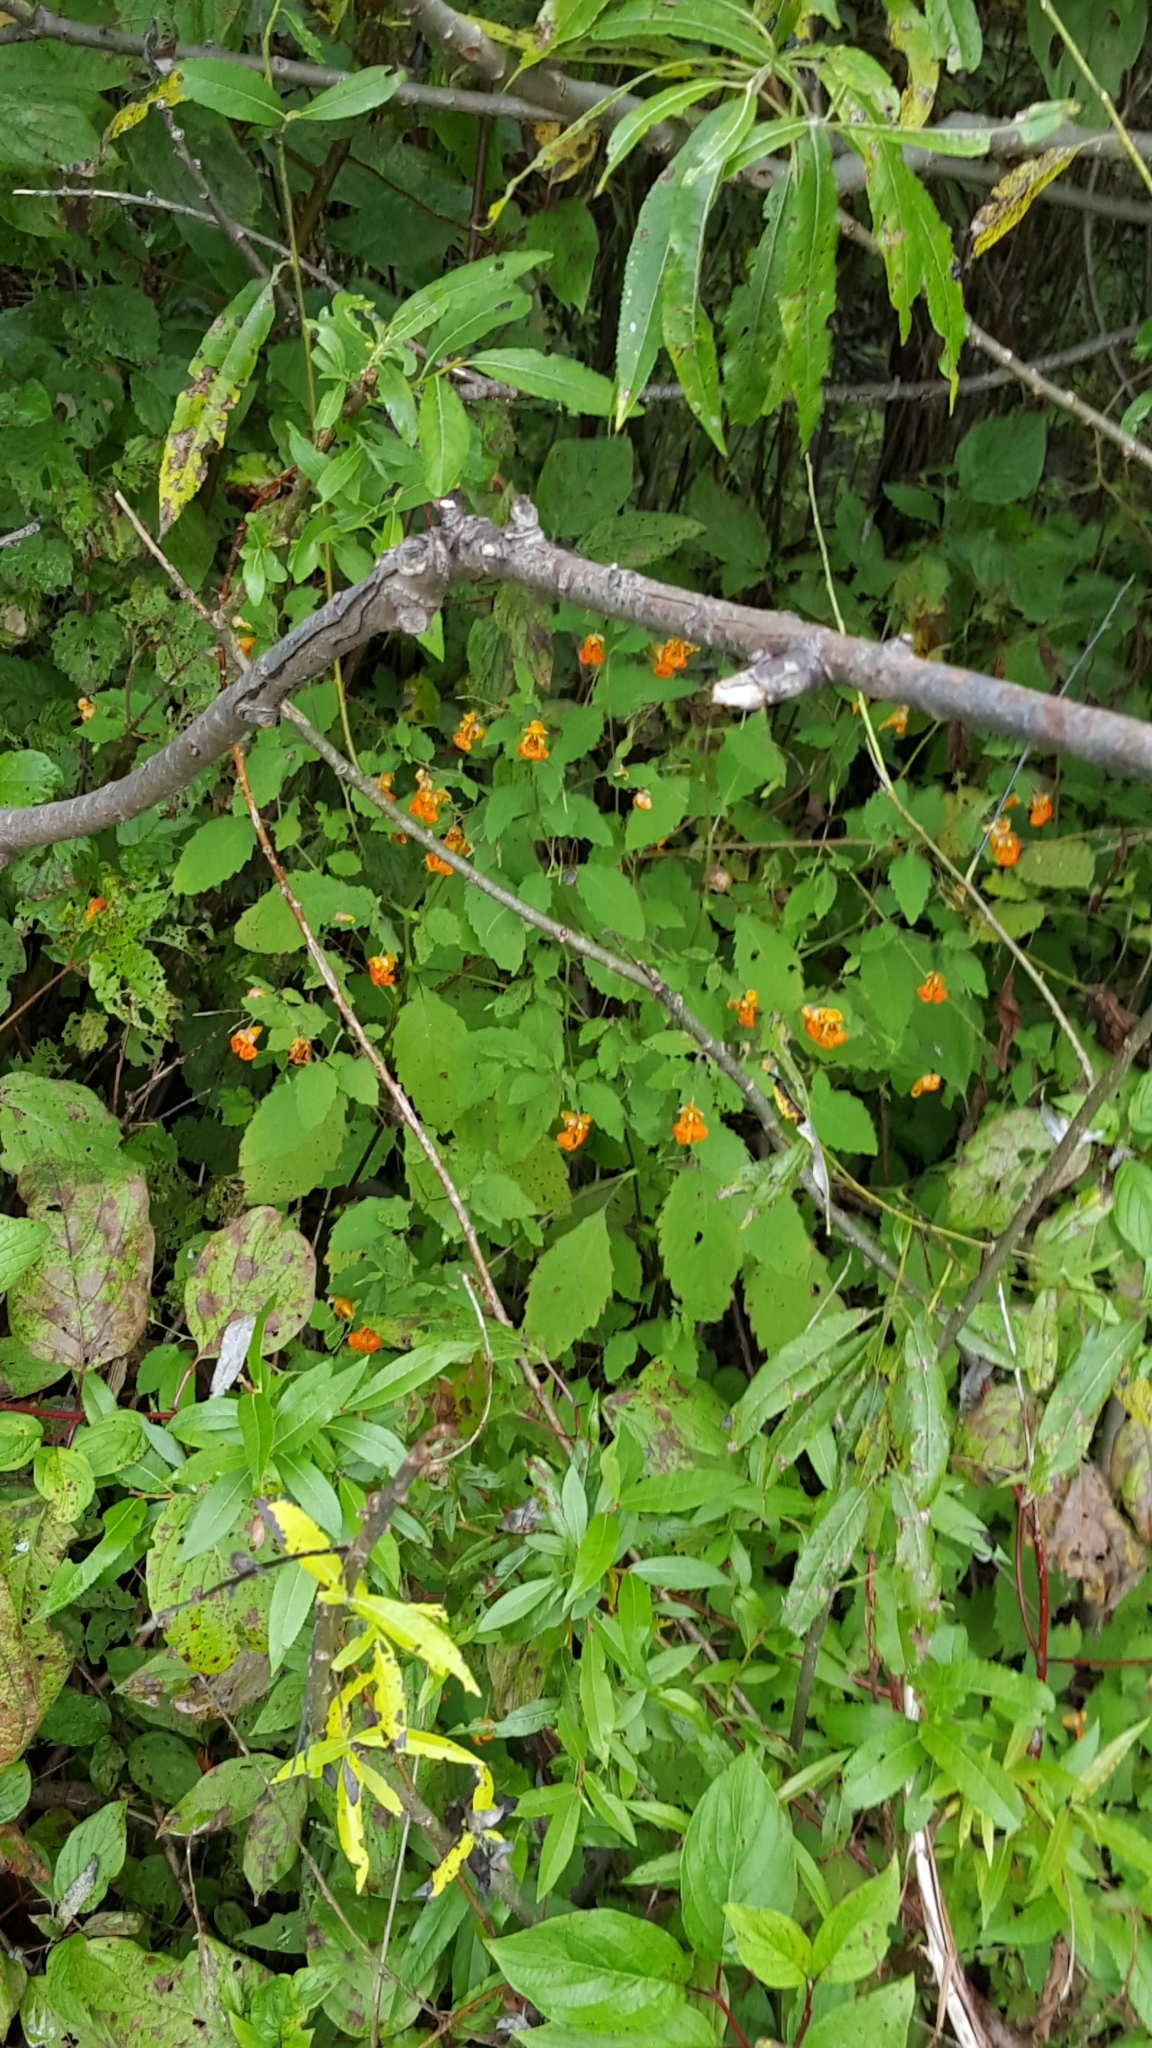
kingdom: Plantae
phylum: Tracheophyta
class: Magnoliopsida
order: Ericales
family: Balsaminaceae
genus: Impatiens
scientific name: Impatiens capensis
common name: Orange balsam
